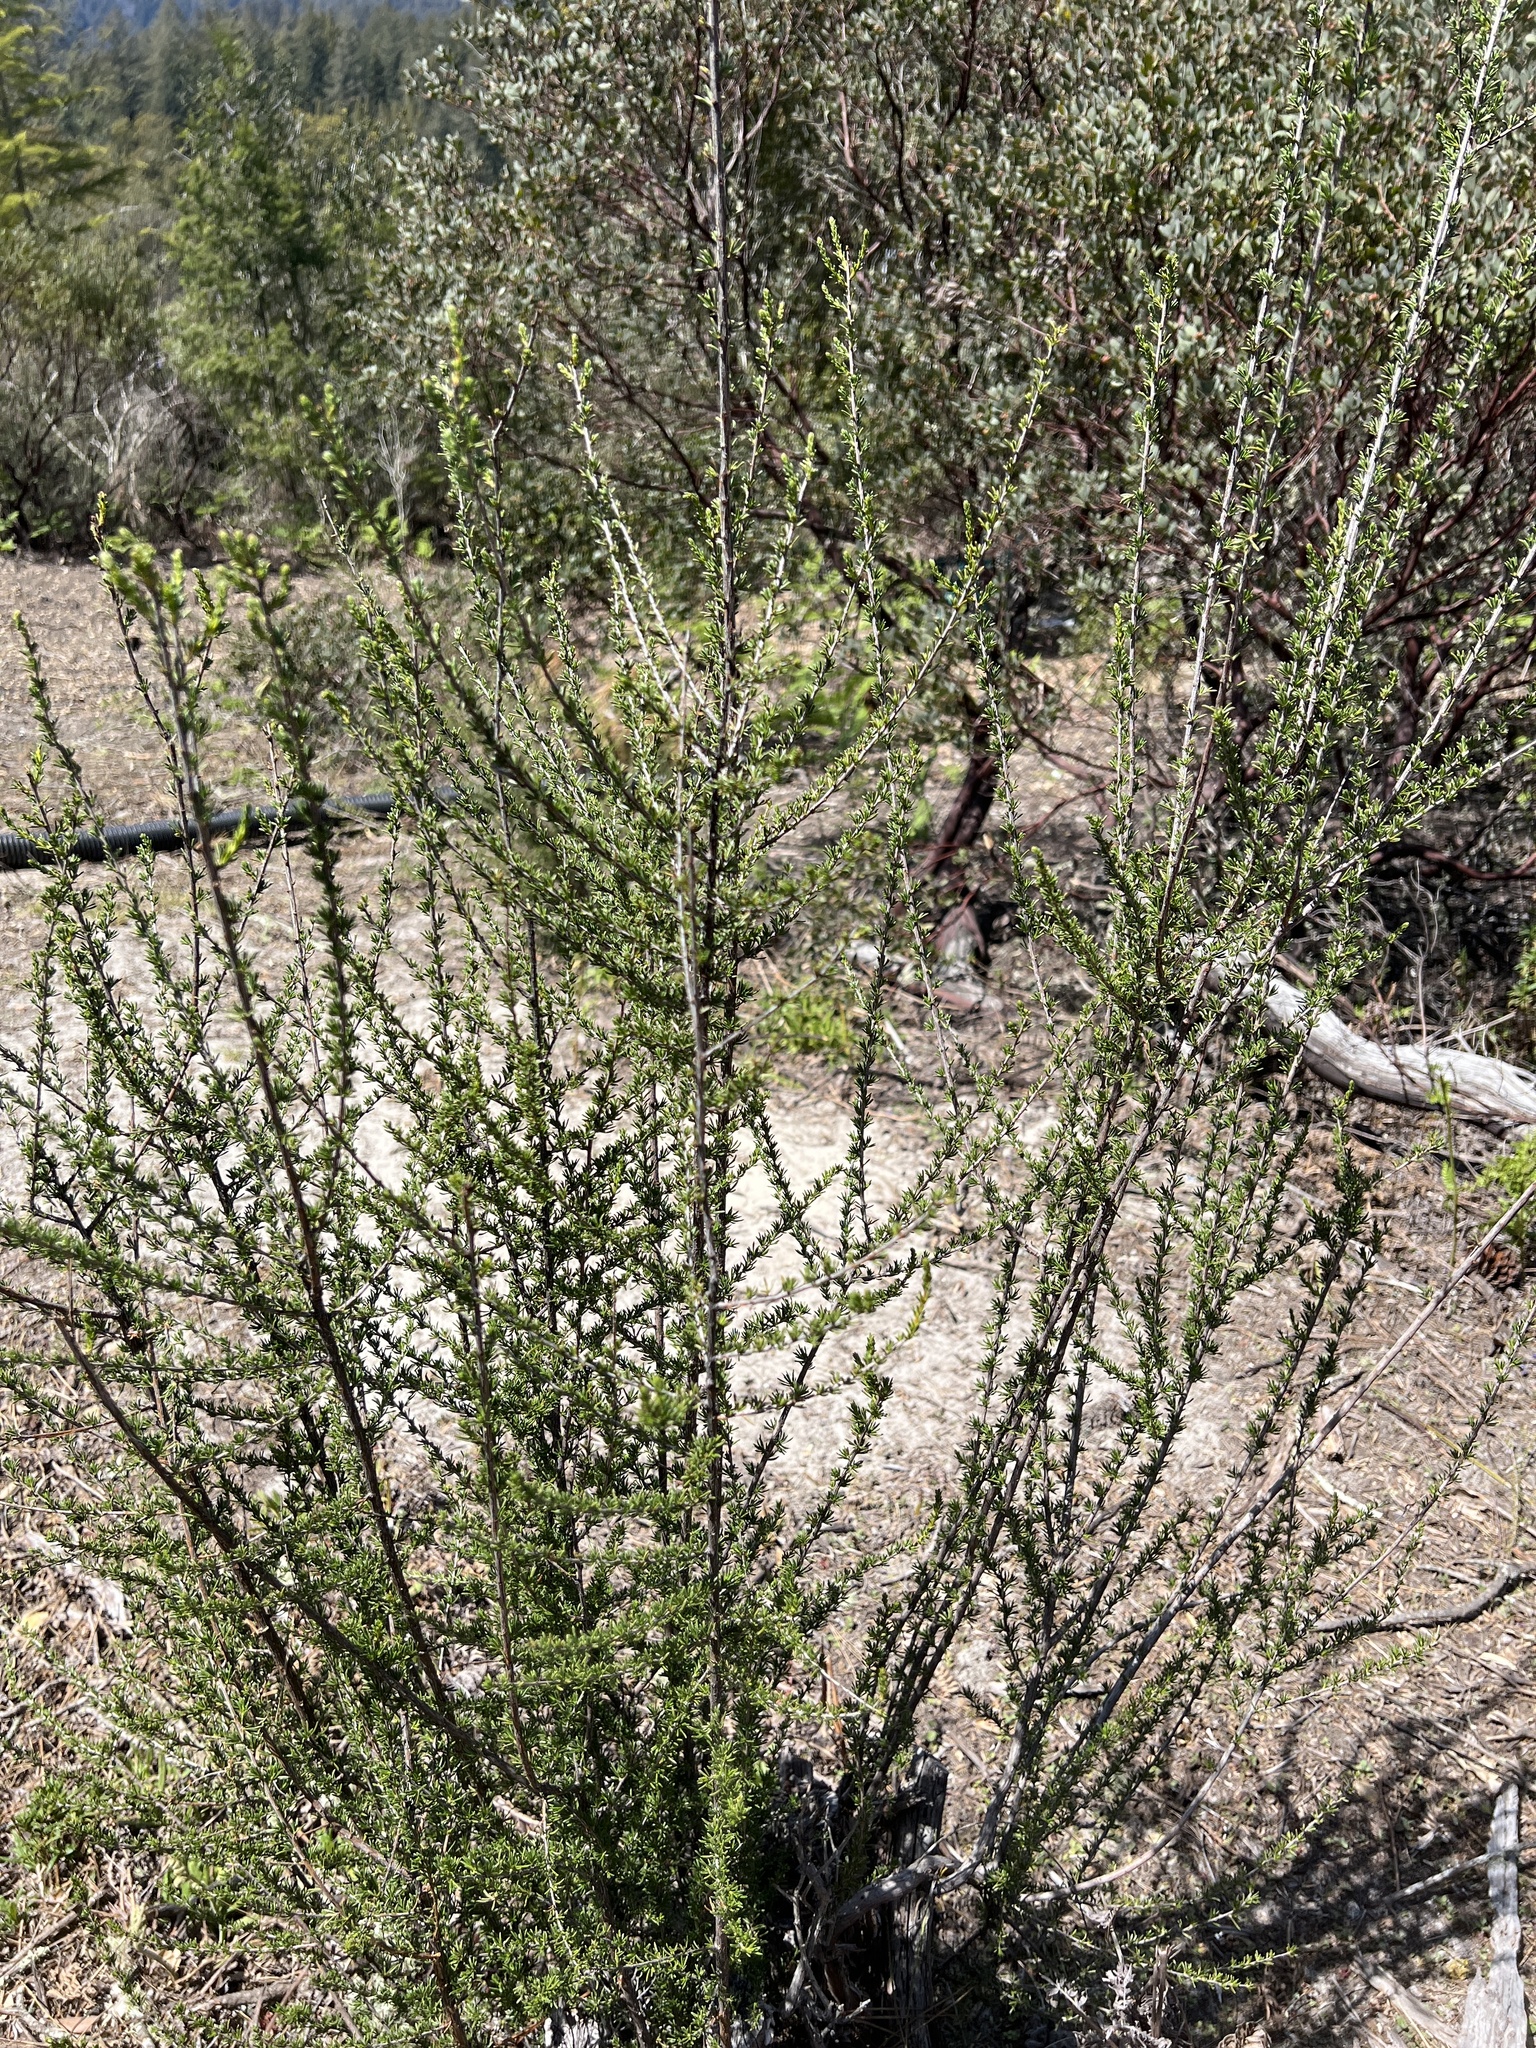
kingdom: Plantae
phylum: Tracheophyta
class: Magnoliopsida
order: Rosales
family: Rosaceae
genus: Adenostoma
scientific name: Adenostoma fasciculatum
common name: Chamise
